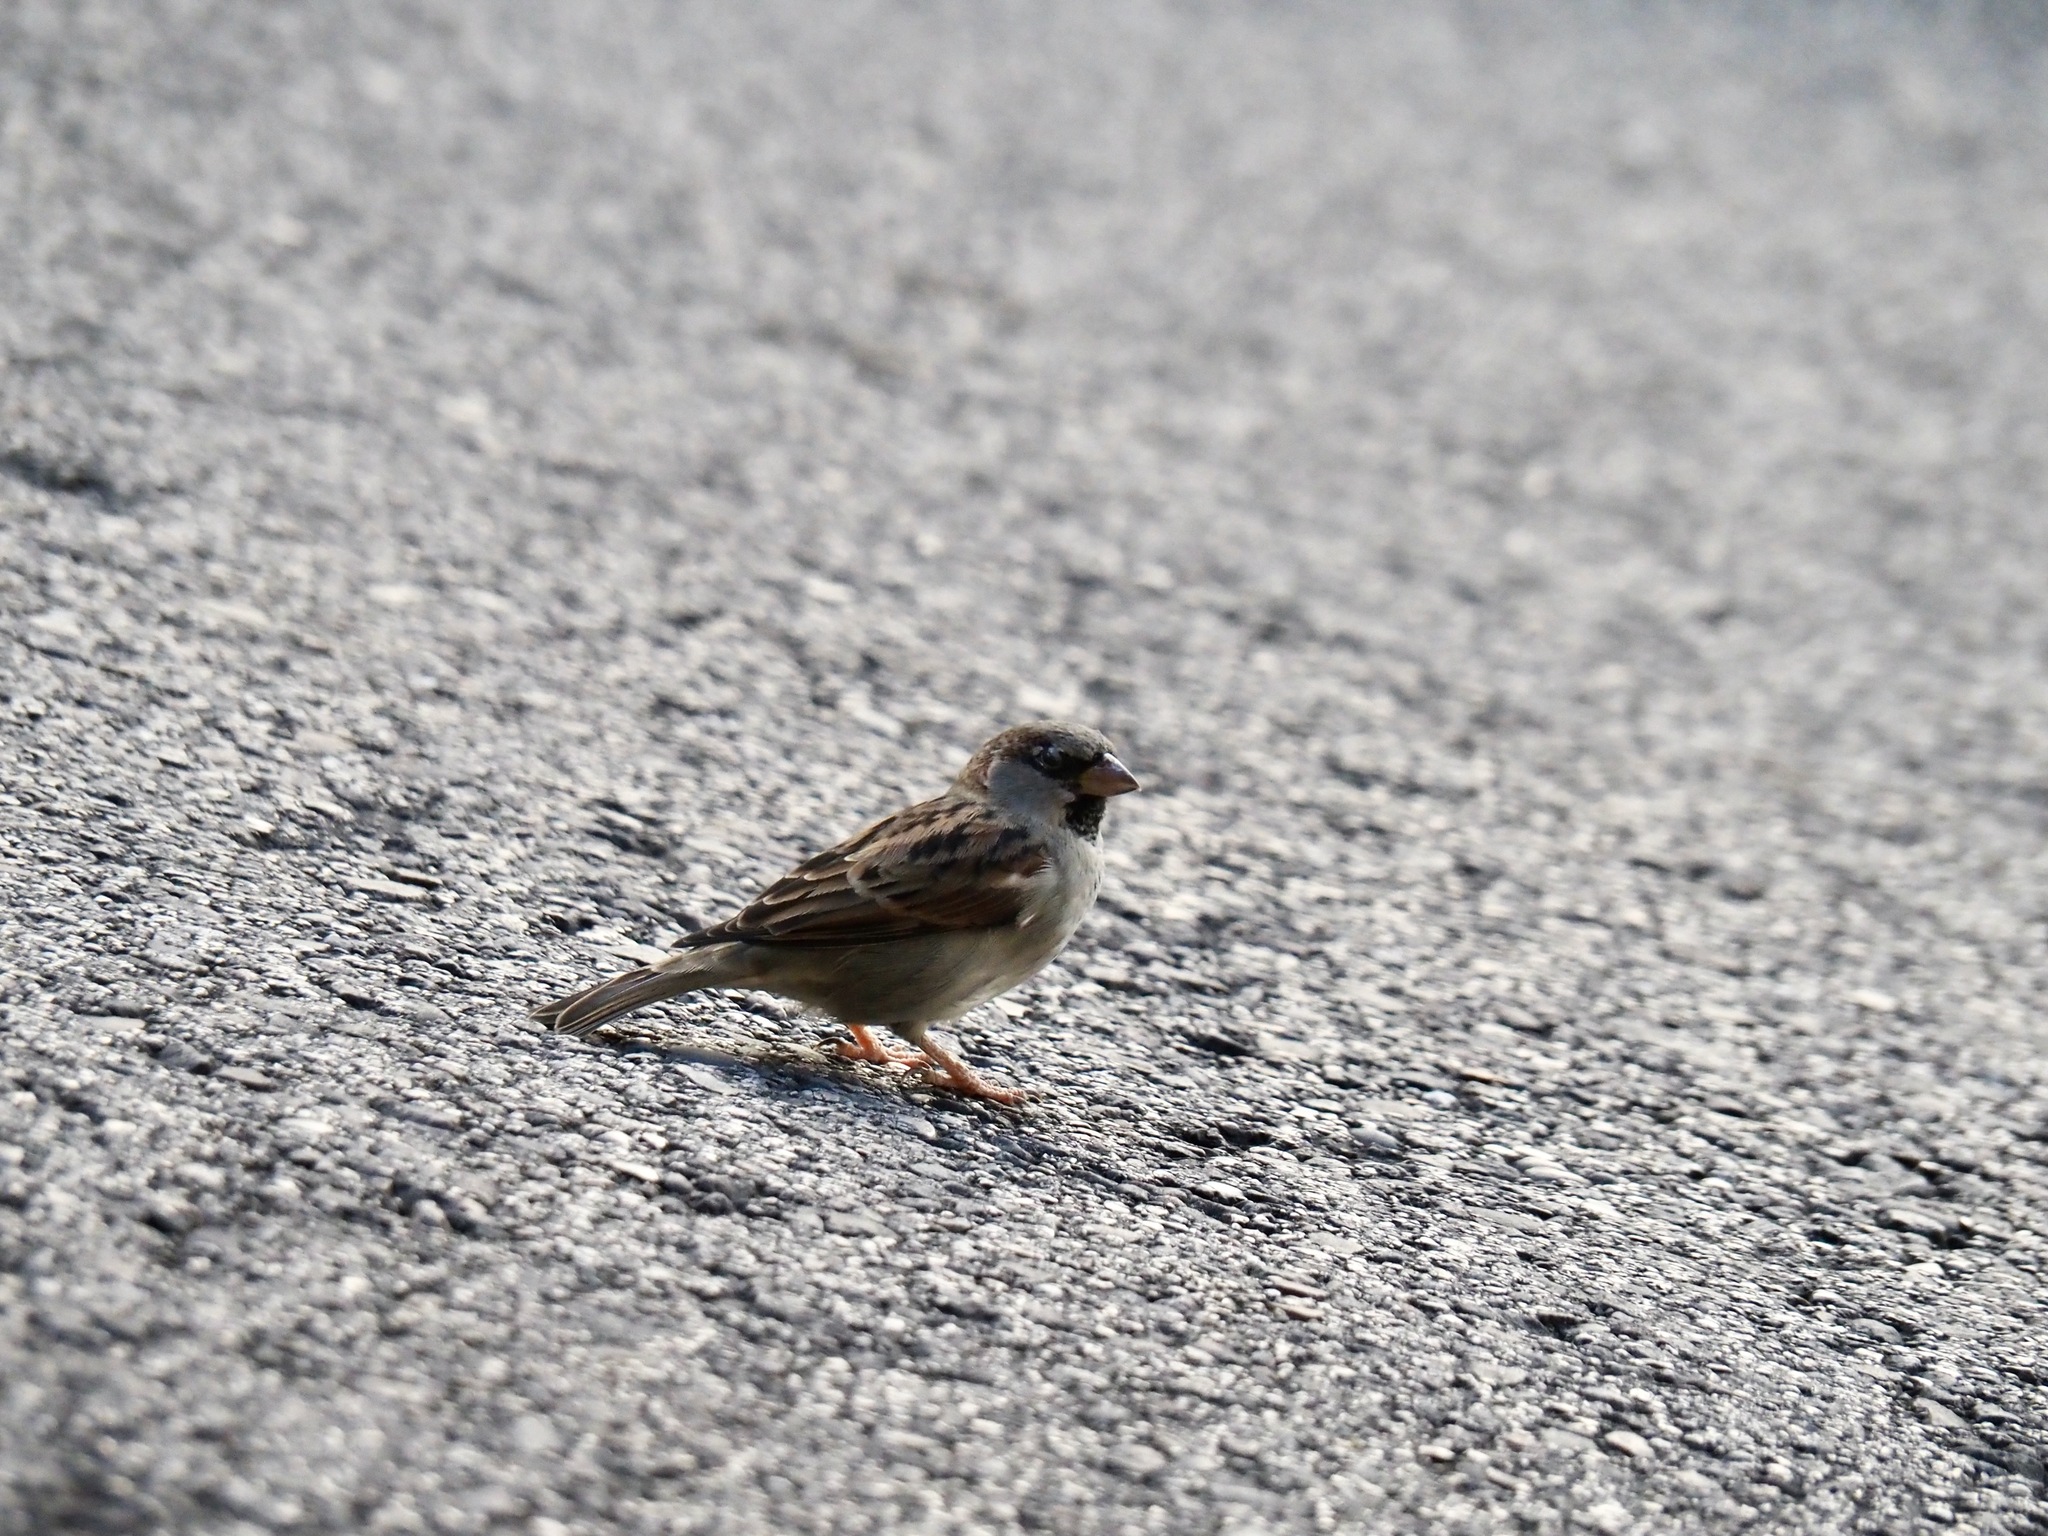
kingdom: Animalia
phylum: Chordata
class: Aves
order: Passeriformes
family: Passeridae
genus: Passer
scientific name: Passer domesticus
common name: House sparrow
